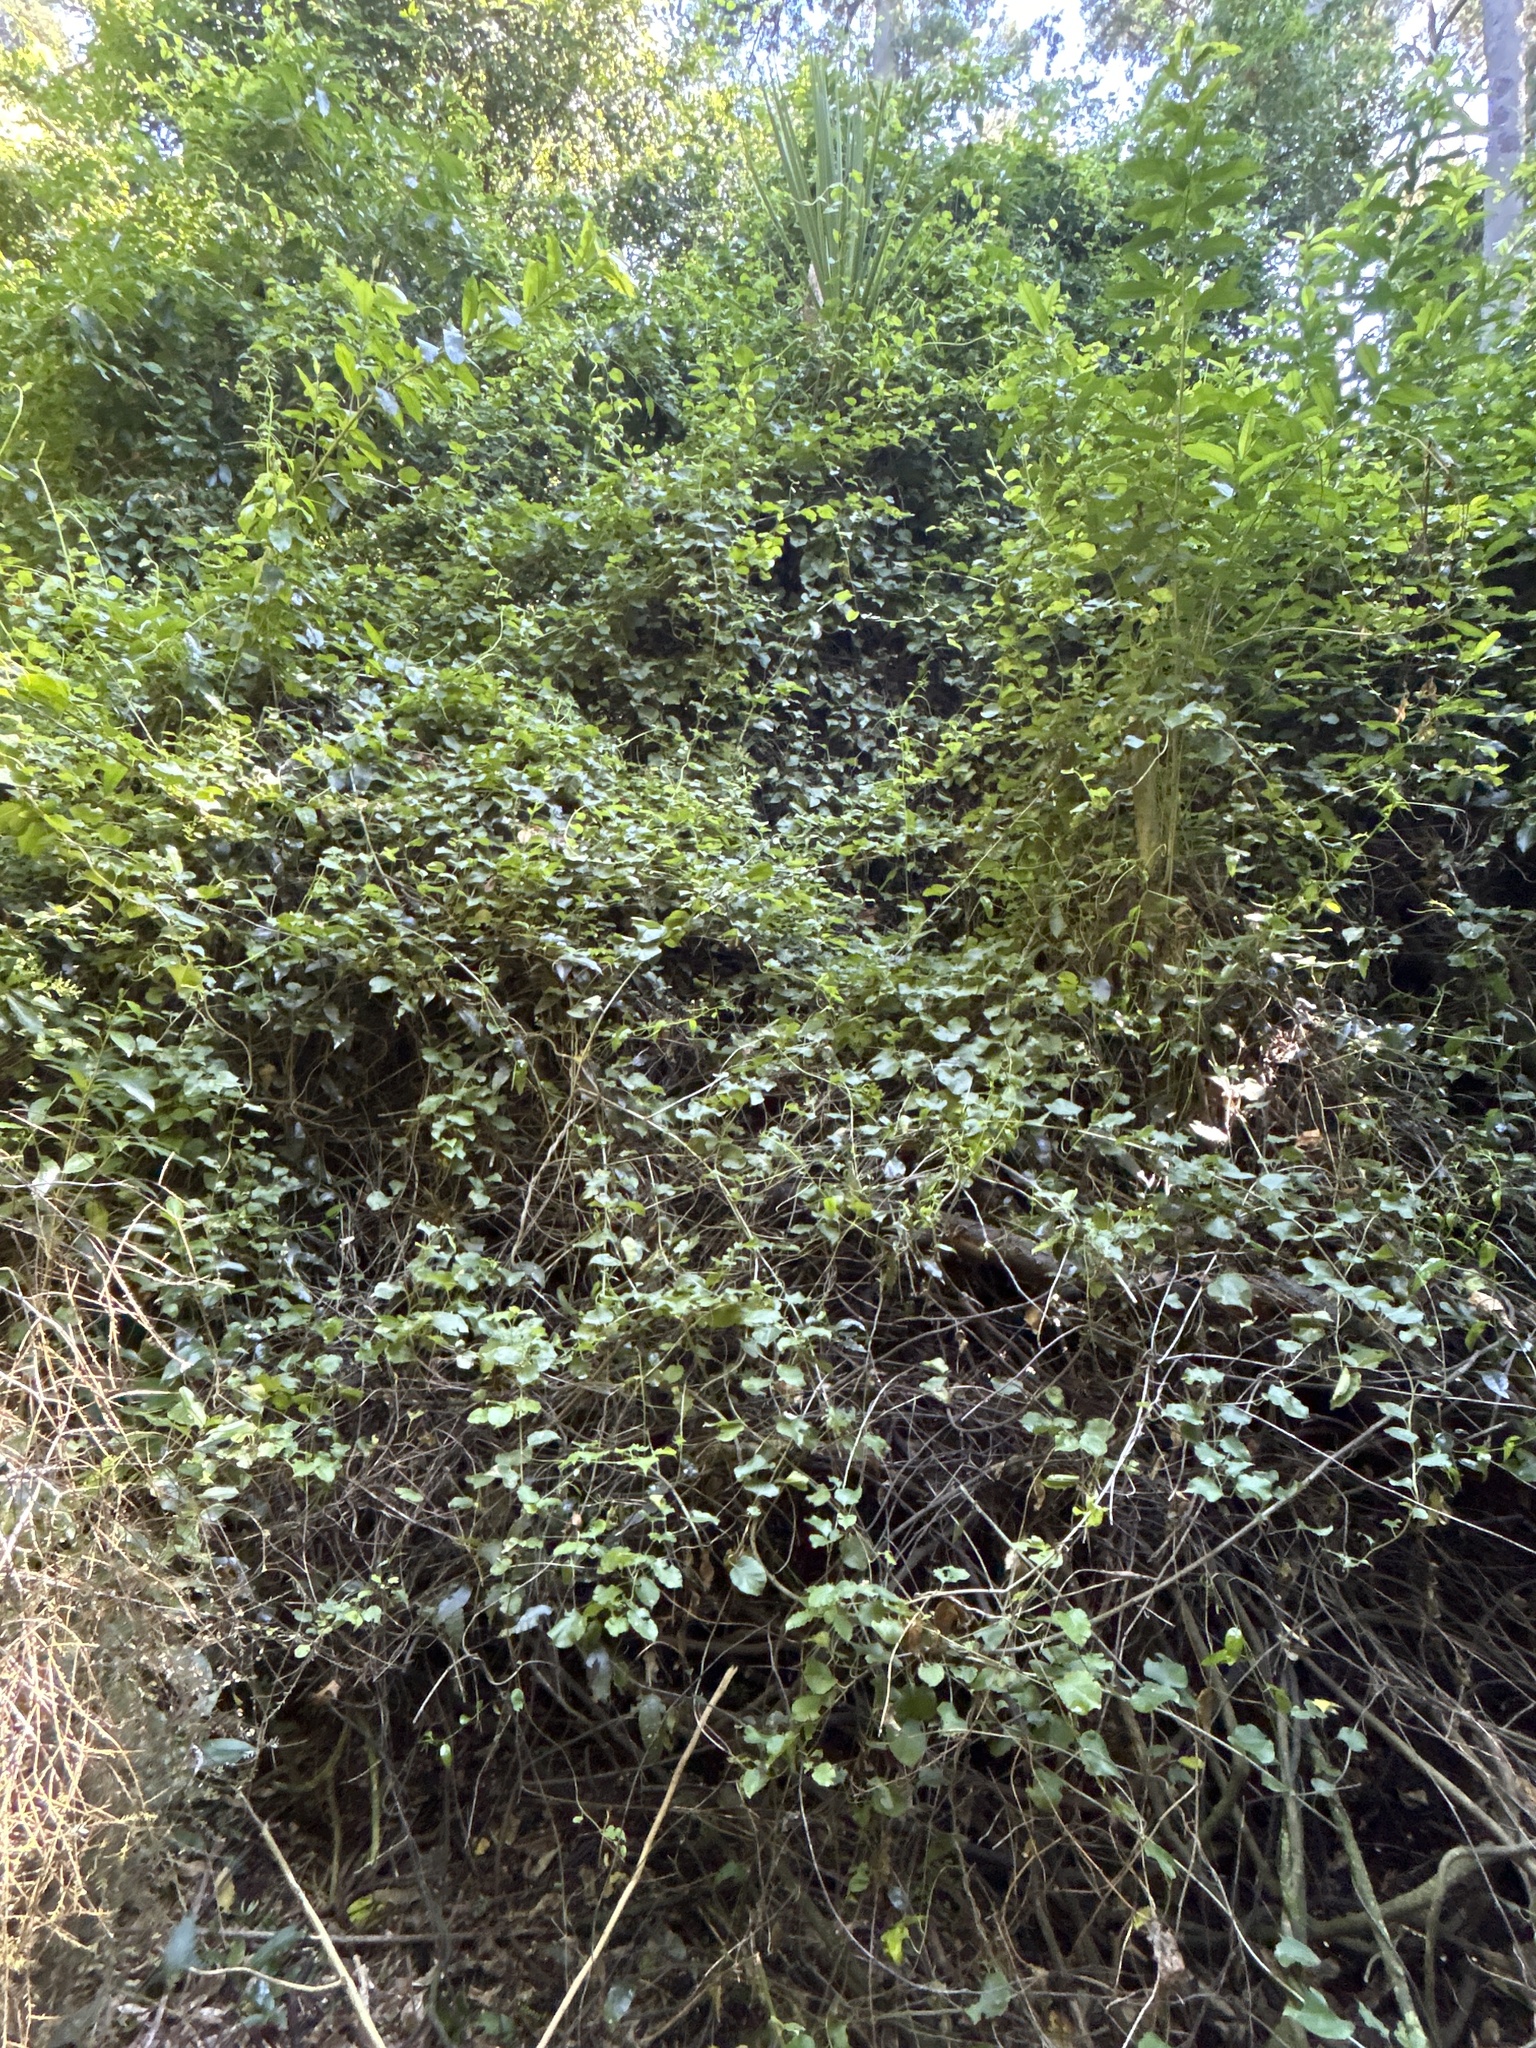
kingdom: Plantae
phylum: Tracheophyta
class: Magnoliopsida
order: Caryophyllales
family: Polygonaceae
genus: Muehlenbeckia
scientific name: Muehlenbeckia australis
